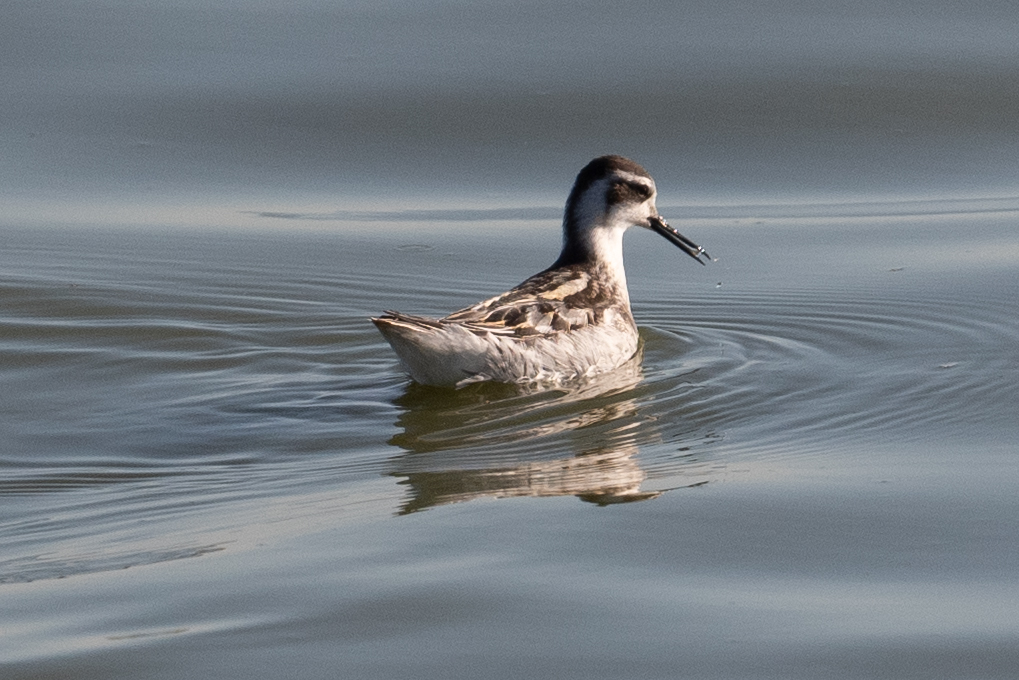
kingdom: Animalia
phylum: Chordata
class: Aves
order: Charadriiformes
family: Scolopacidae
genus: Phalaropus
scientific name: Phalaropus lobatus
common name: Red-necked phalarope
